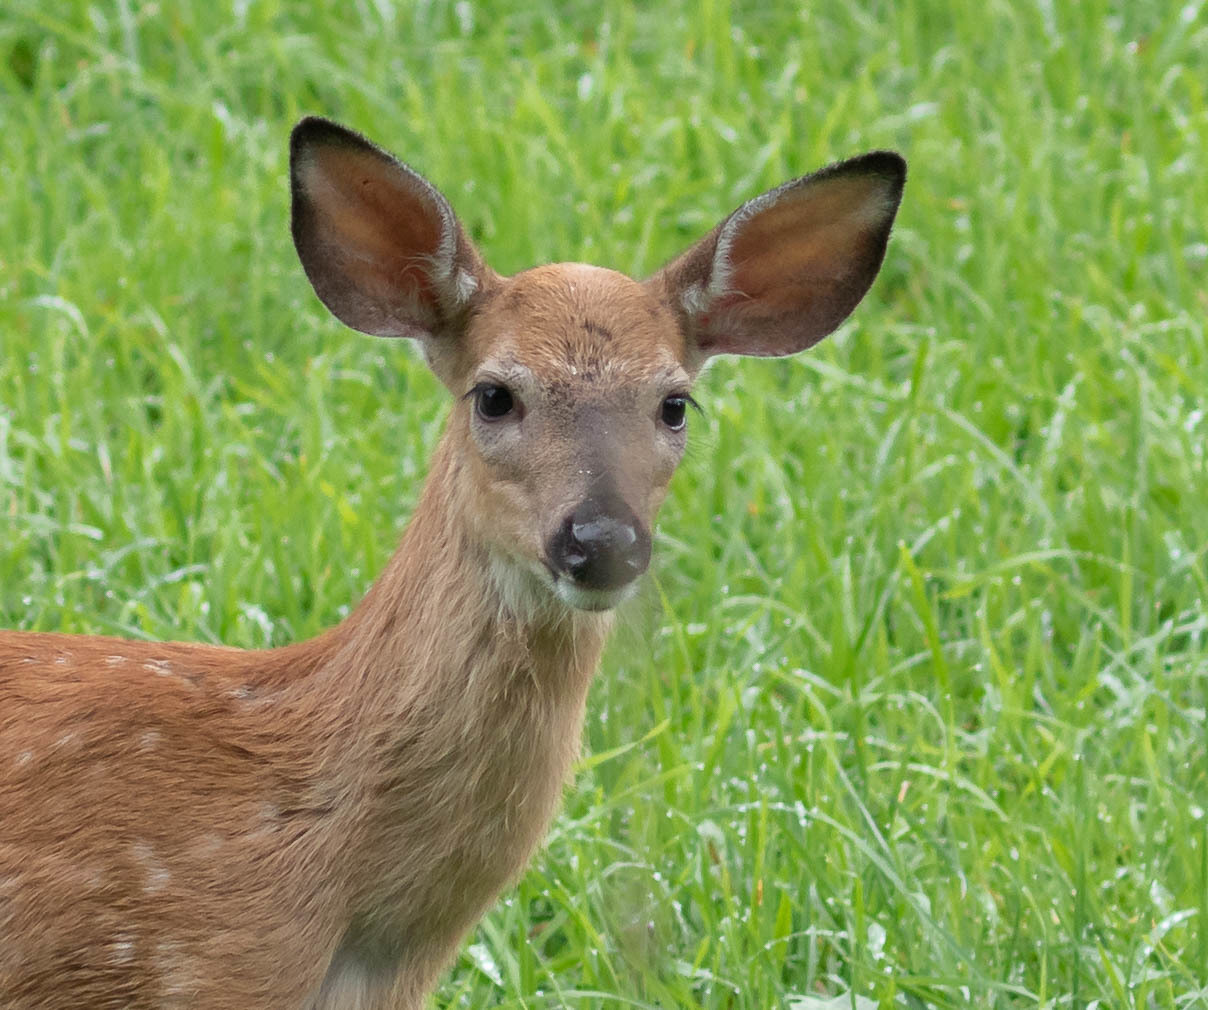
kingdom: Animalia
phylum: Chordata
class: Mammalia
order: Artiodactyla
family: Cervidae
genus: Odocoileus
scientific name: Odocoileus virginianus
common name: White-tailed deer
